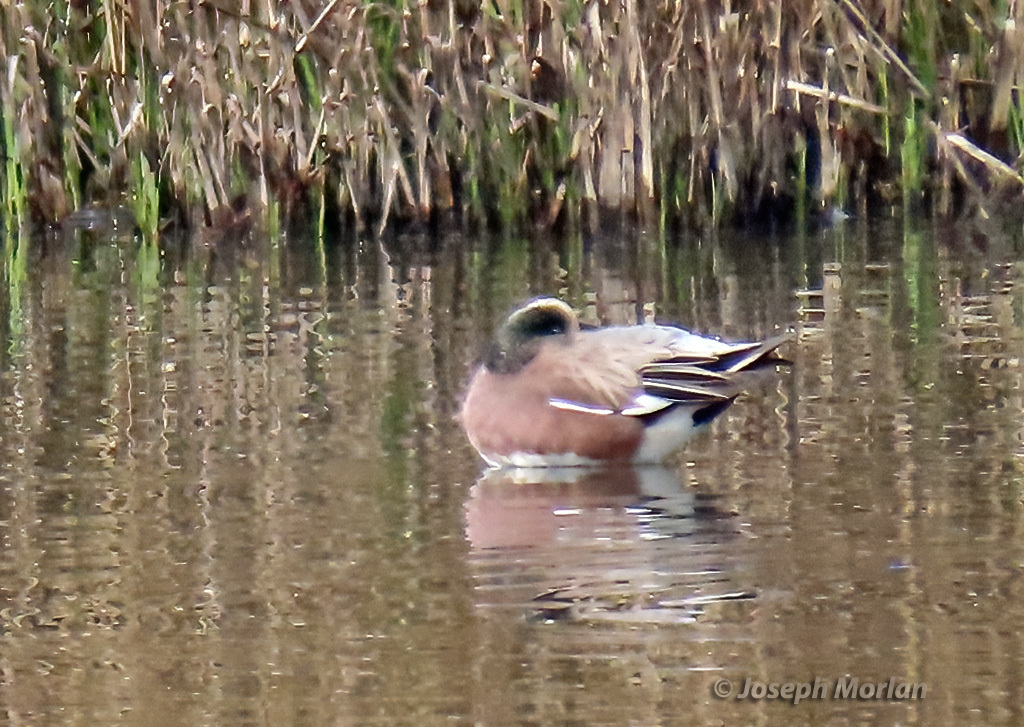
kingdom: Animalia
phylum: Chordata
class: Aves
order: Anseriformes
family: Anatidae
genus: Mareca
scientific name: Mareca americana
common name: American wigeon
